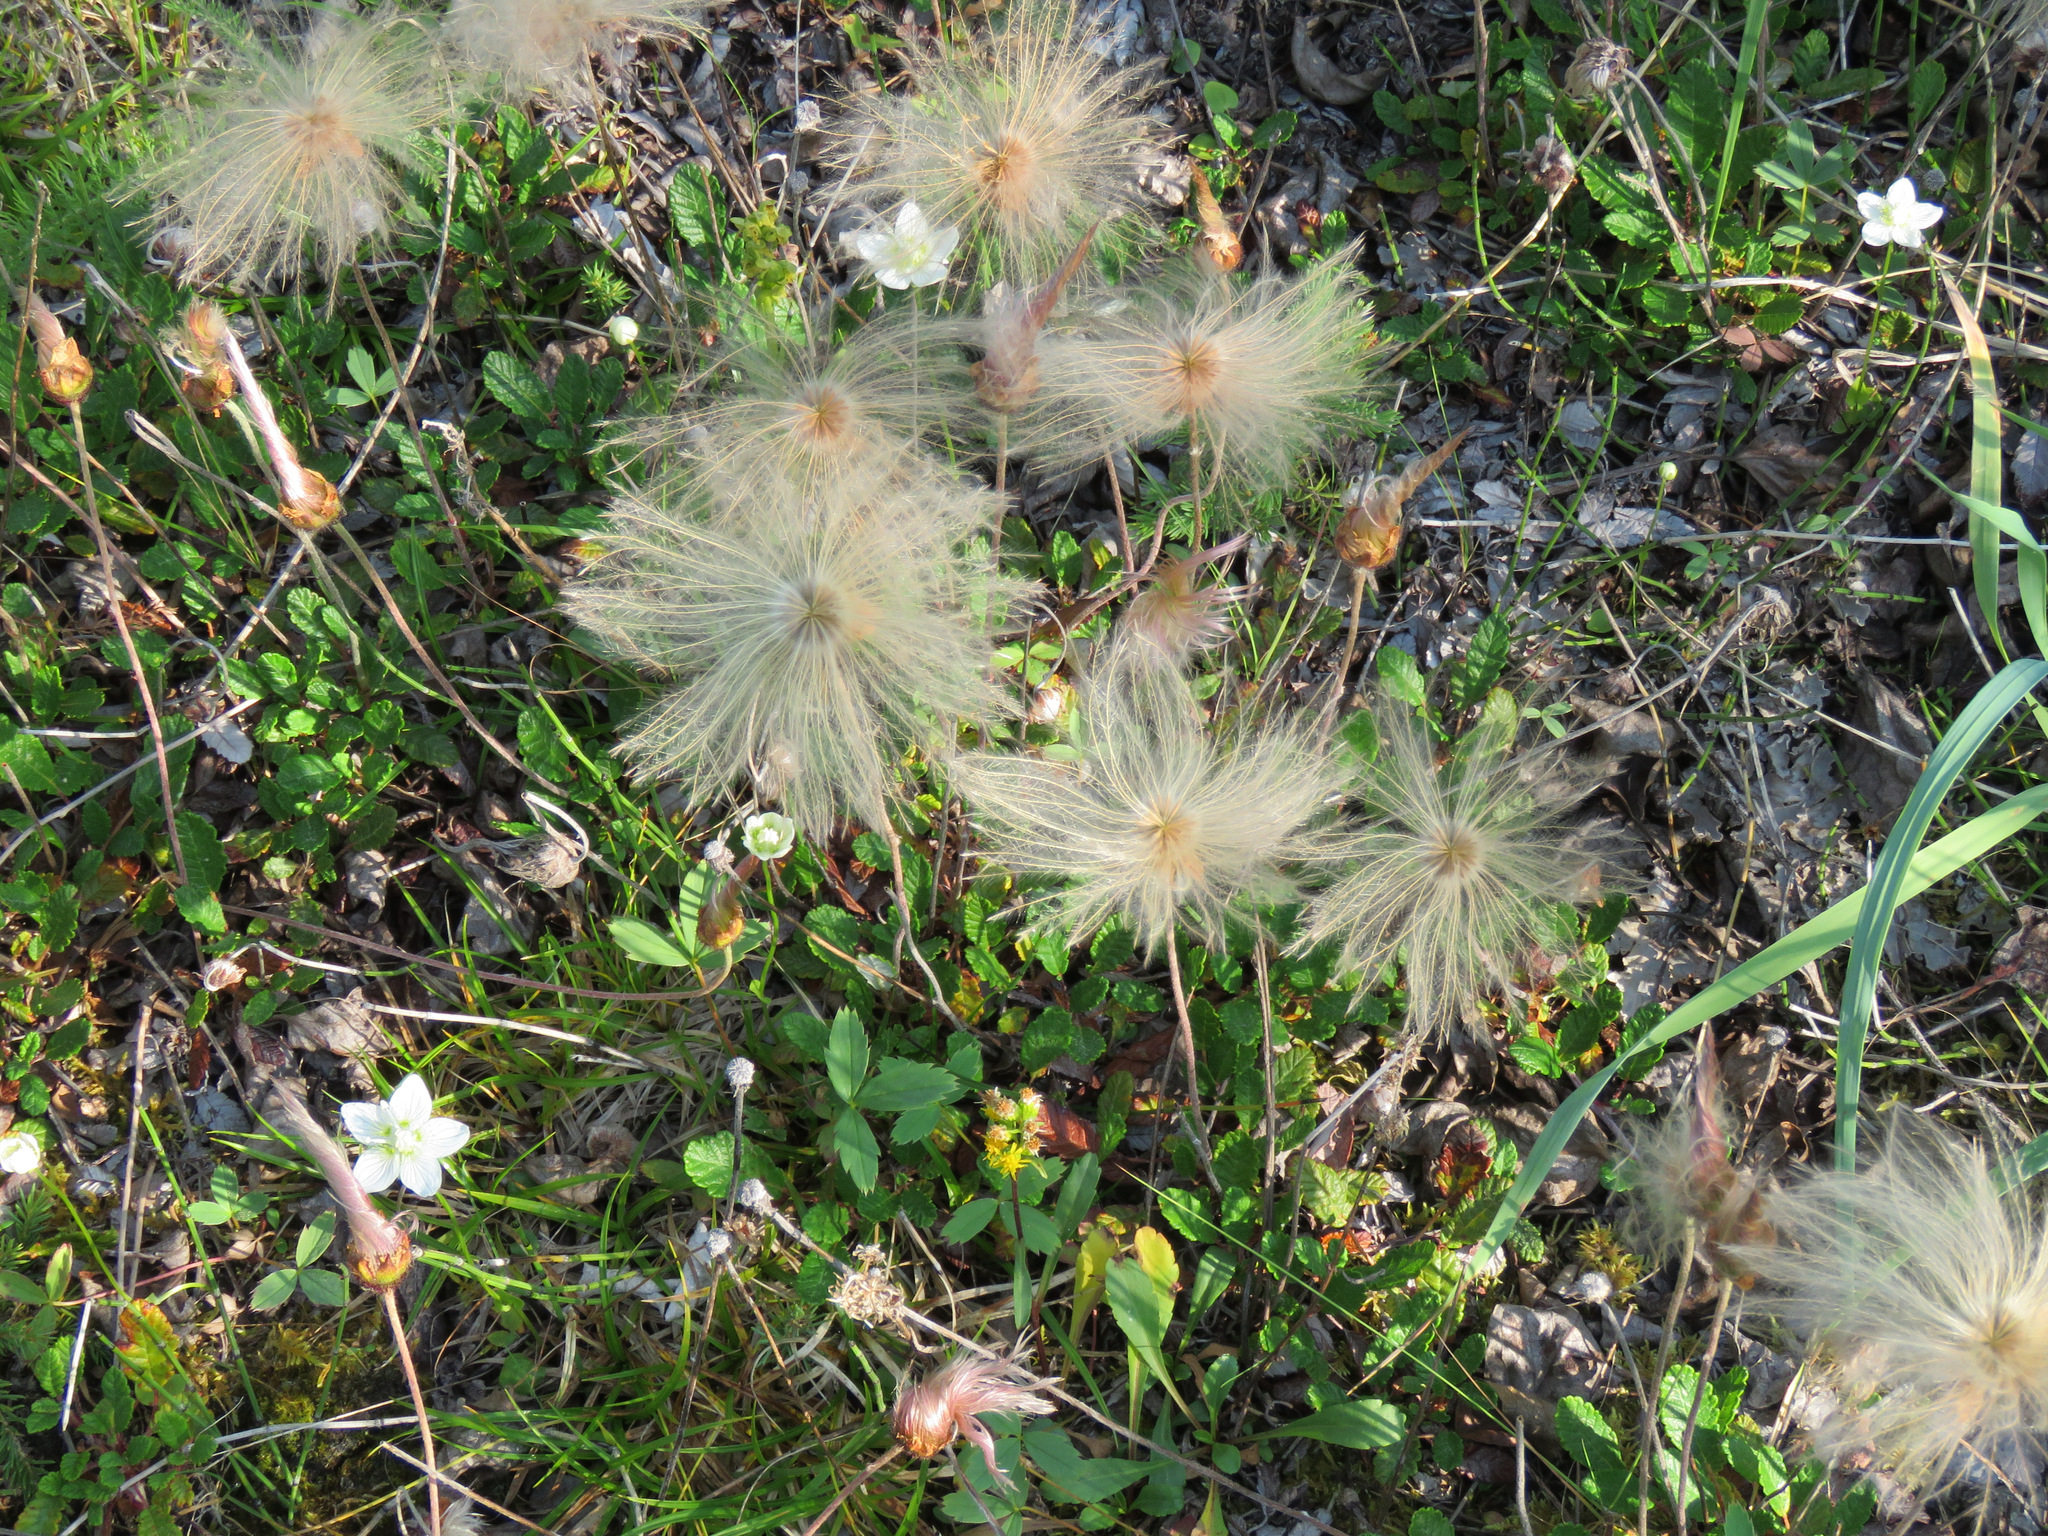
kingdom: Plantae
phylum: Tracheophyta
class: Magnoliopsida
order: Rosales
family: Rosaceae
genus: Dryas
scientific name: Dryas drummondii
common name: Drummond's dryad
